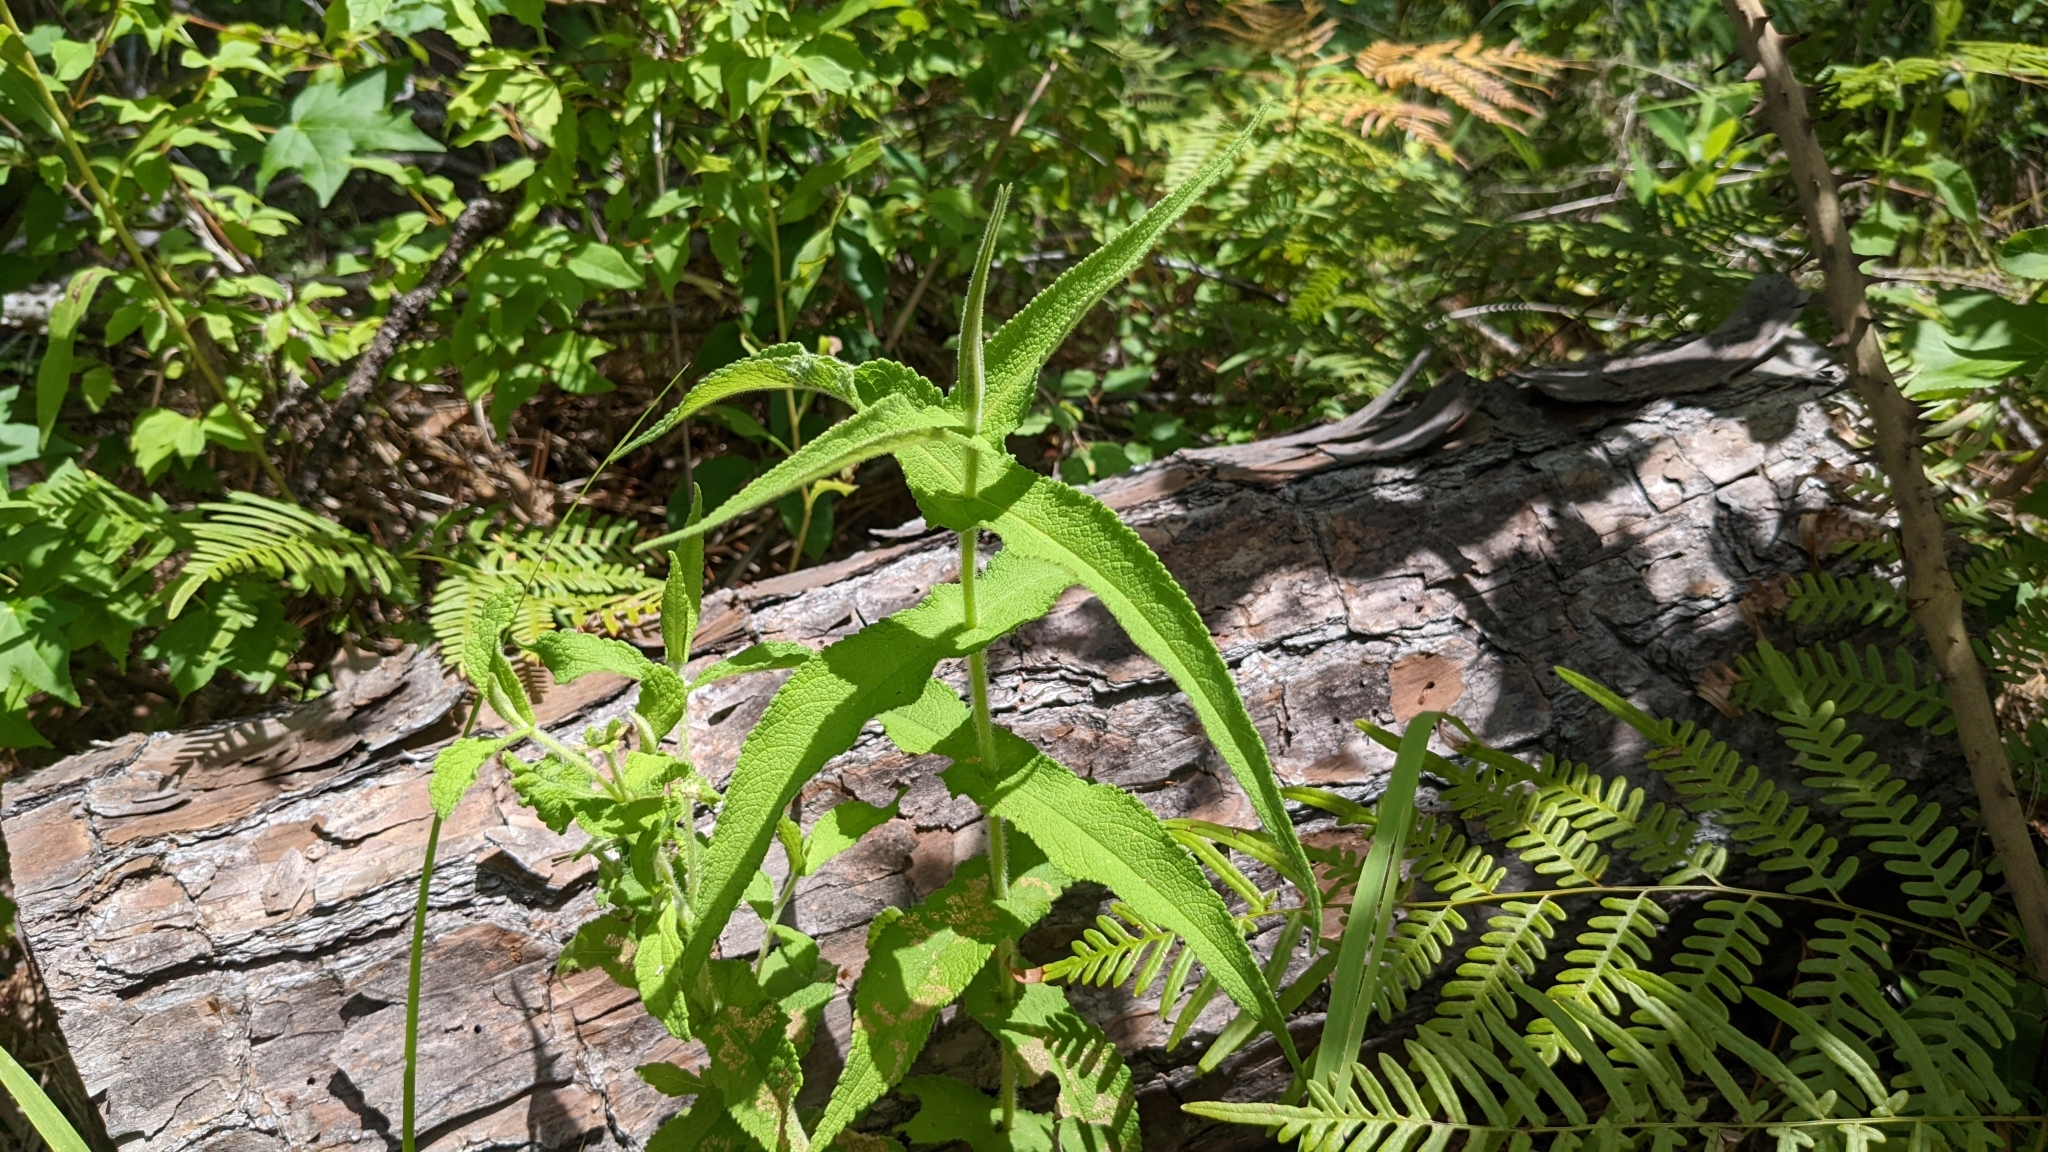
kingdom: Plantae
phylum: Tracheophyta
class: Magnoliopsida
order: Asterales
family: Asteraceae
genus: Eupatorium
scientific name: Eupatorium perfoliatum
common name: Boneset
